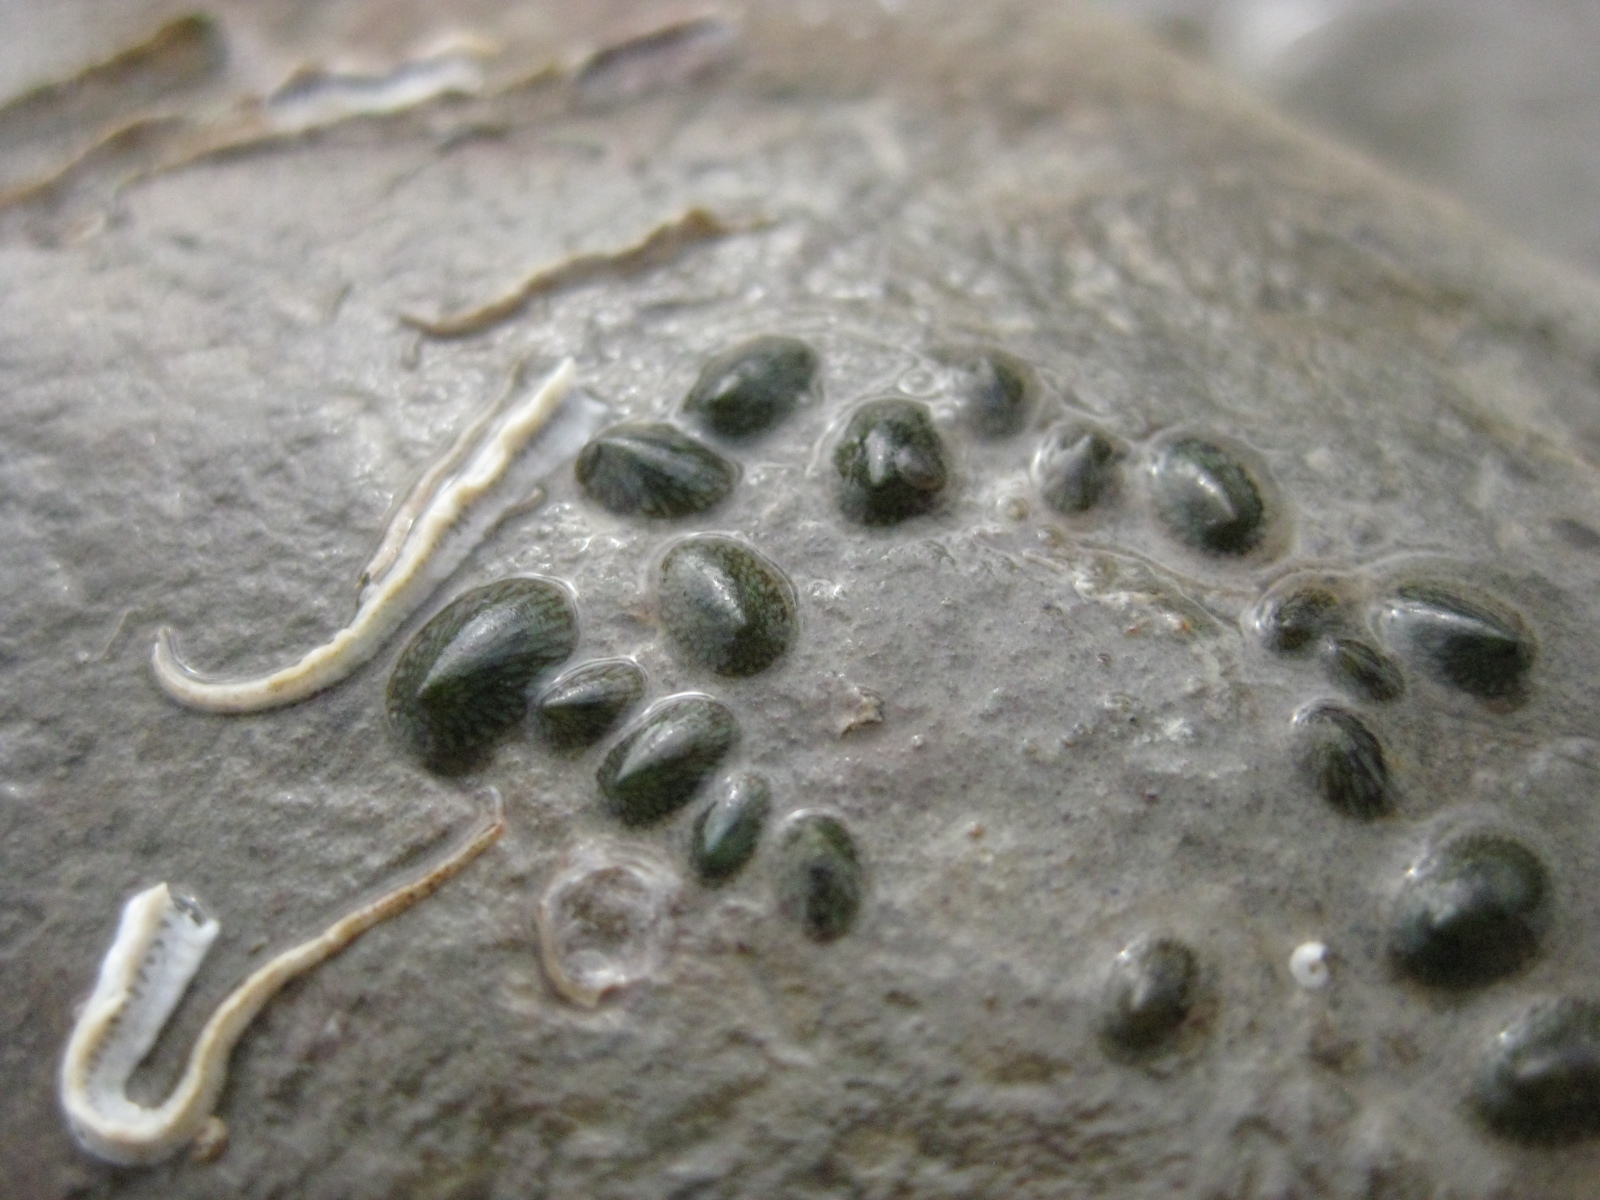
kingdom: Animalia
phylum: Mollusca
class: Gastropoda
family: Lottiidae
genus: Notoacmea
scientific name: Notoacmea elongata
